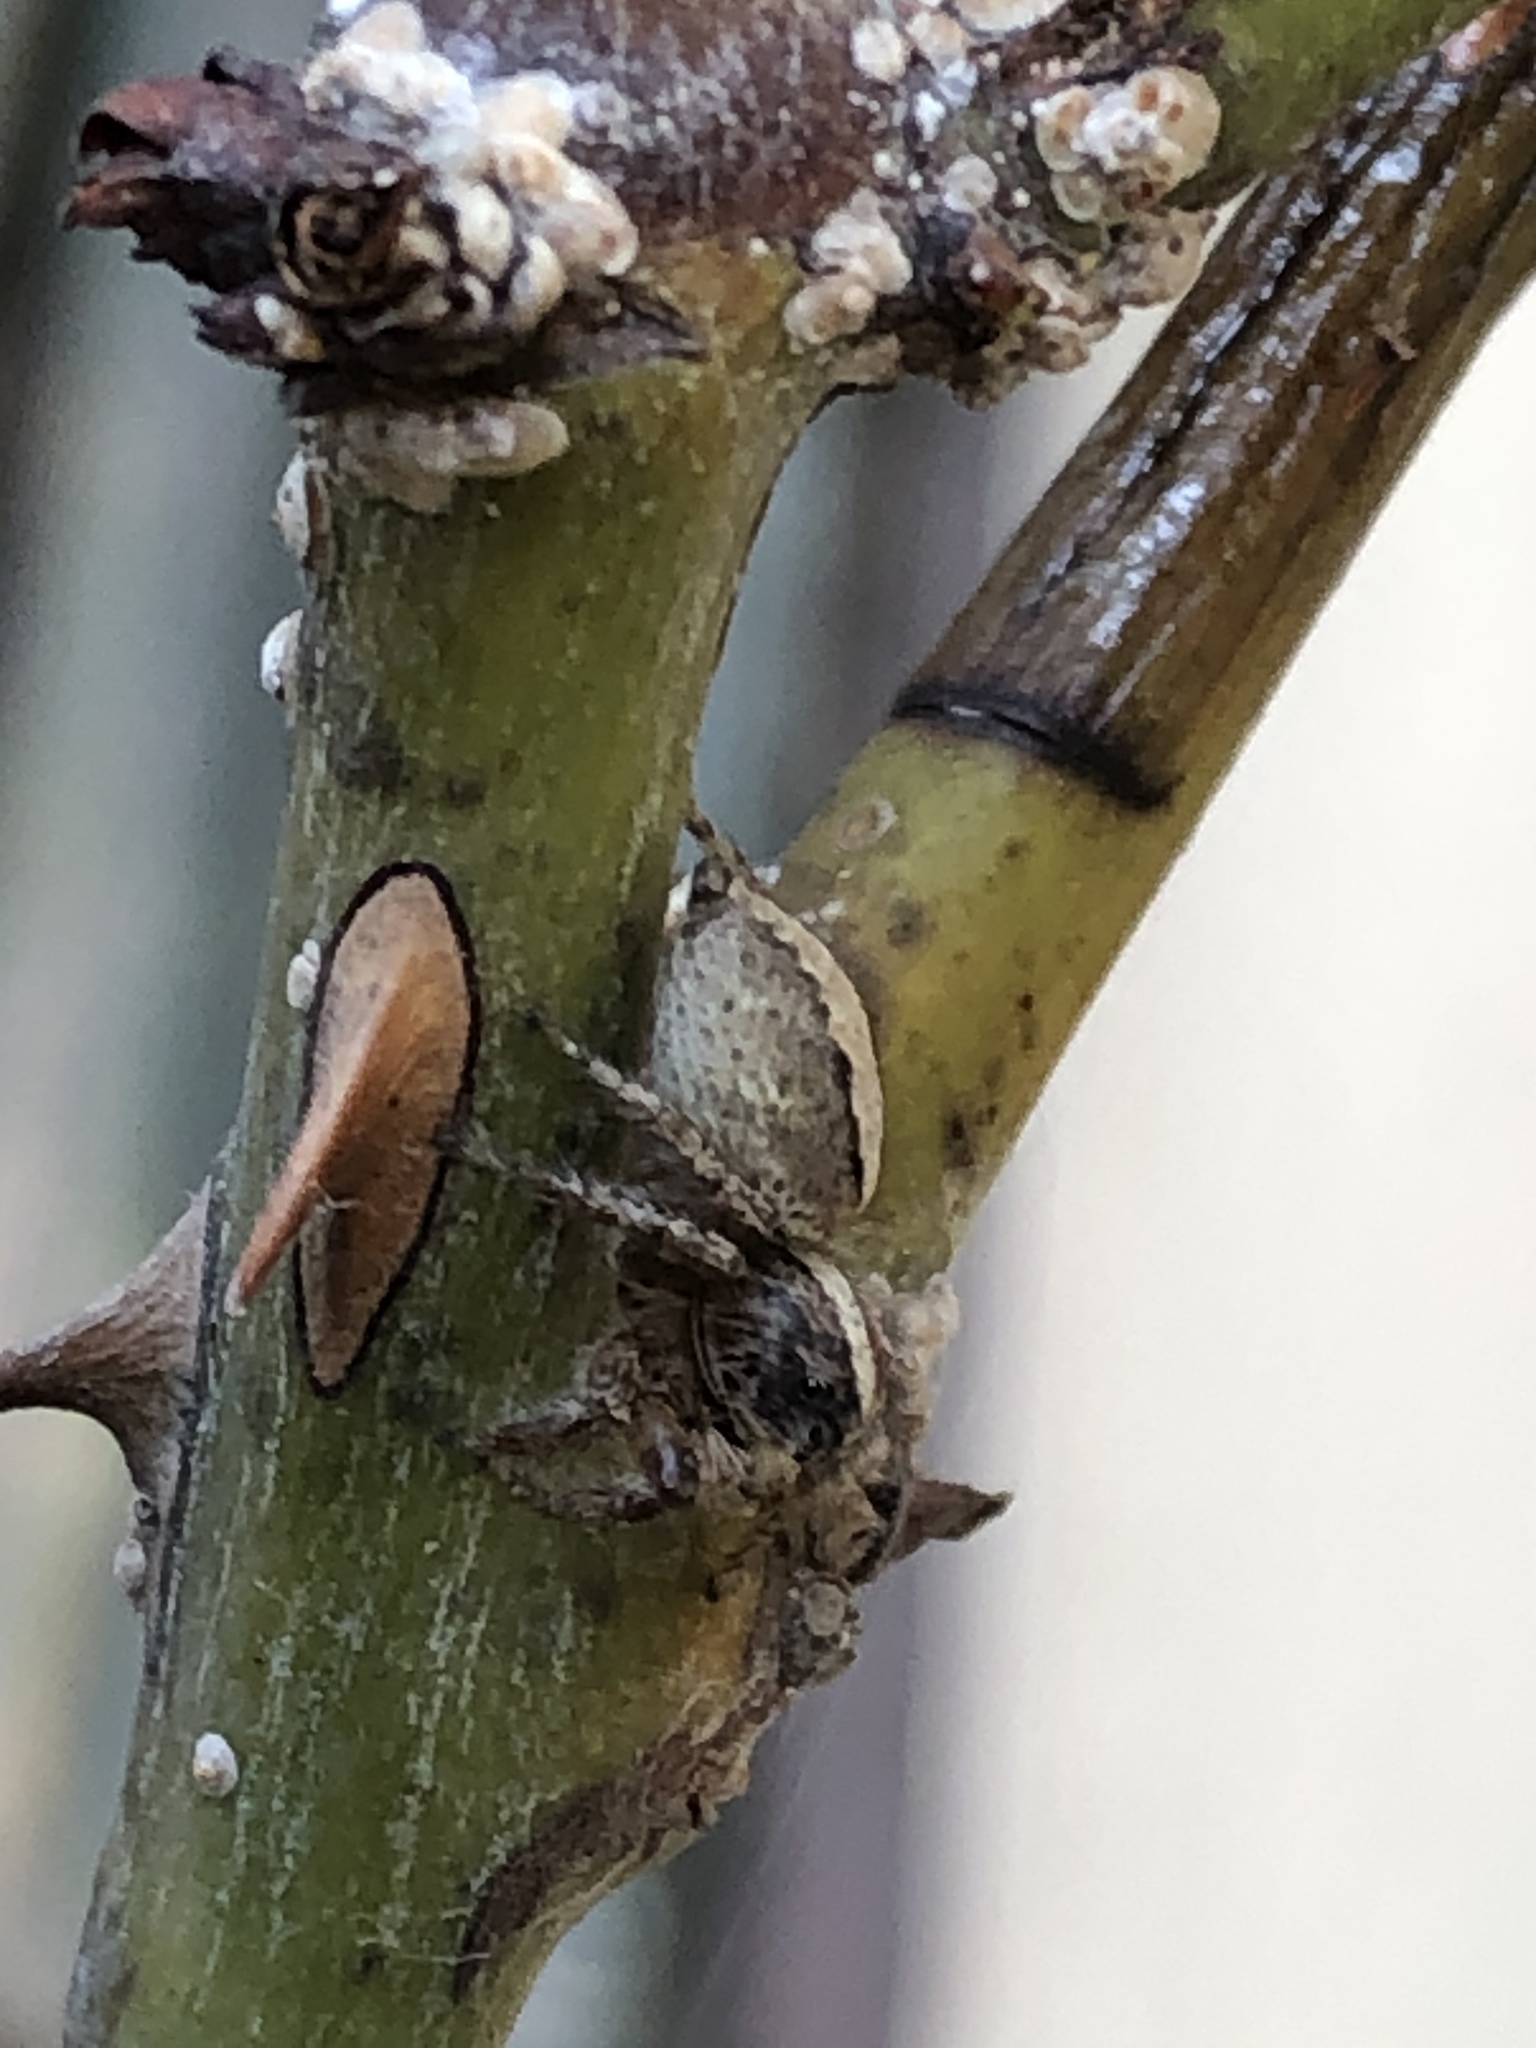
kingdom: Animalia
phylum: Arthropoda
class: Arachnida
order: Araneae
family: Salticidae
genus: Frigga
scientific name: Frigga crocuta
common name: Jumping spiders
